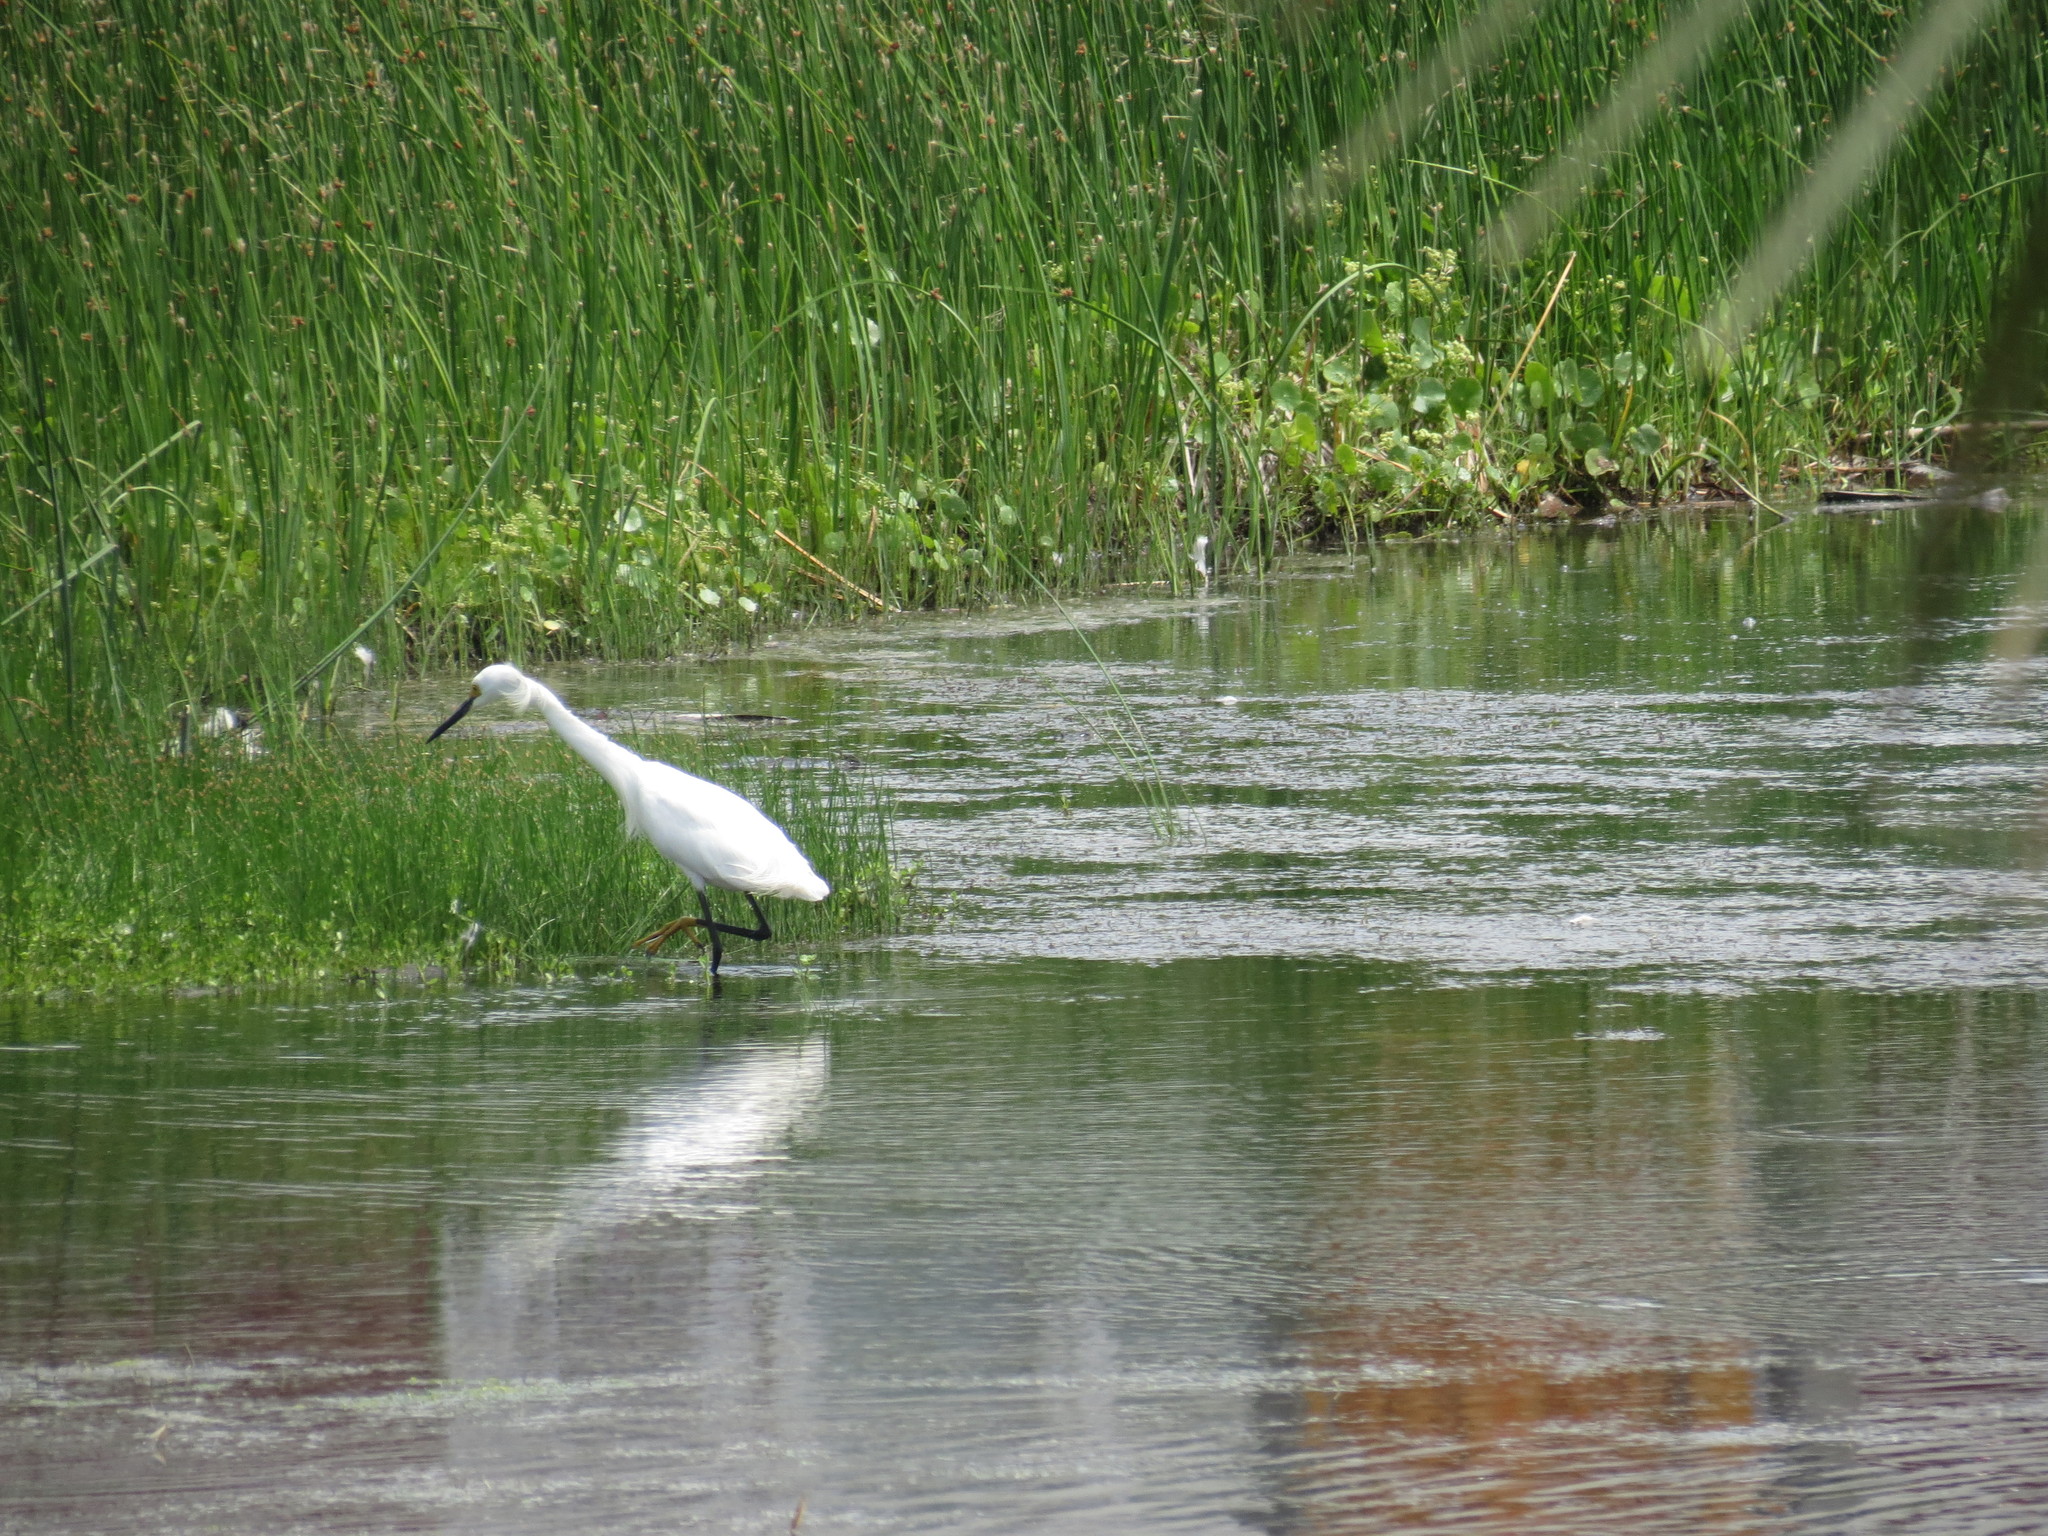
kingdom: Animalia
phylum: Chordata
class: Aves
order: Pelecaniformes
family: Ardeidae
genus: Egretta
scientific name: Egretta thula
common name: Snowy egret
